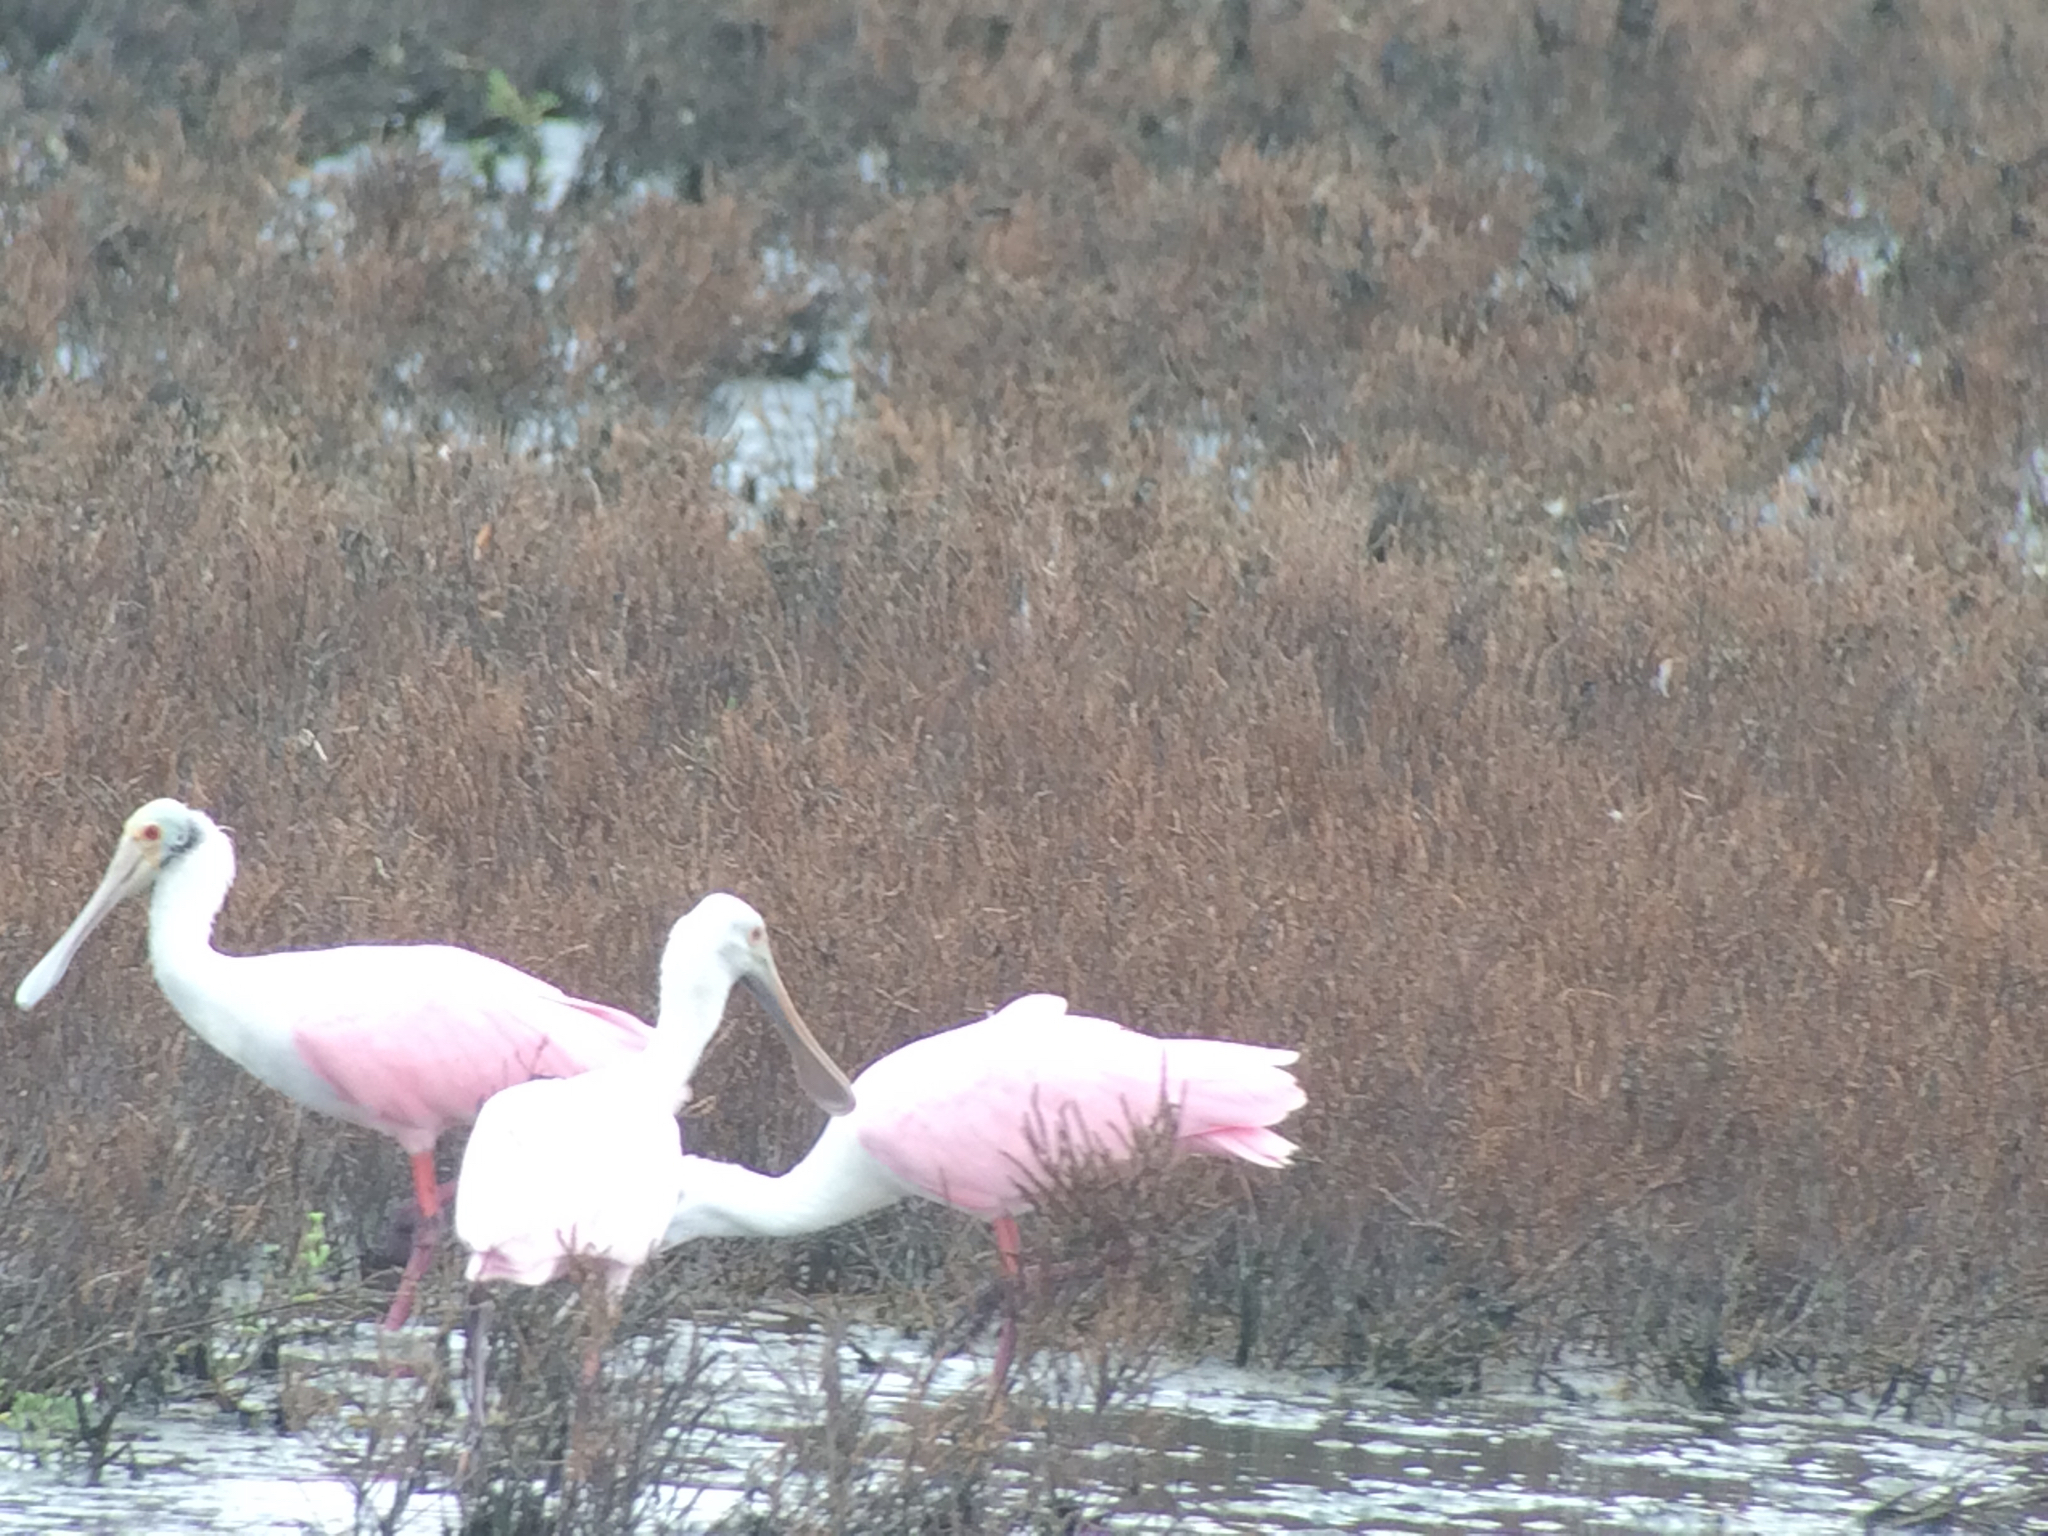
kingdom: Animalia
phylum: Chordata
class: Aves
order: Pelecaniformes
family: Threskiornithidae
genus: Platalea
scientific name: Platalea ajaja
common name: Roseate spoonbill
